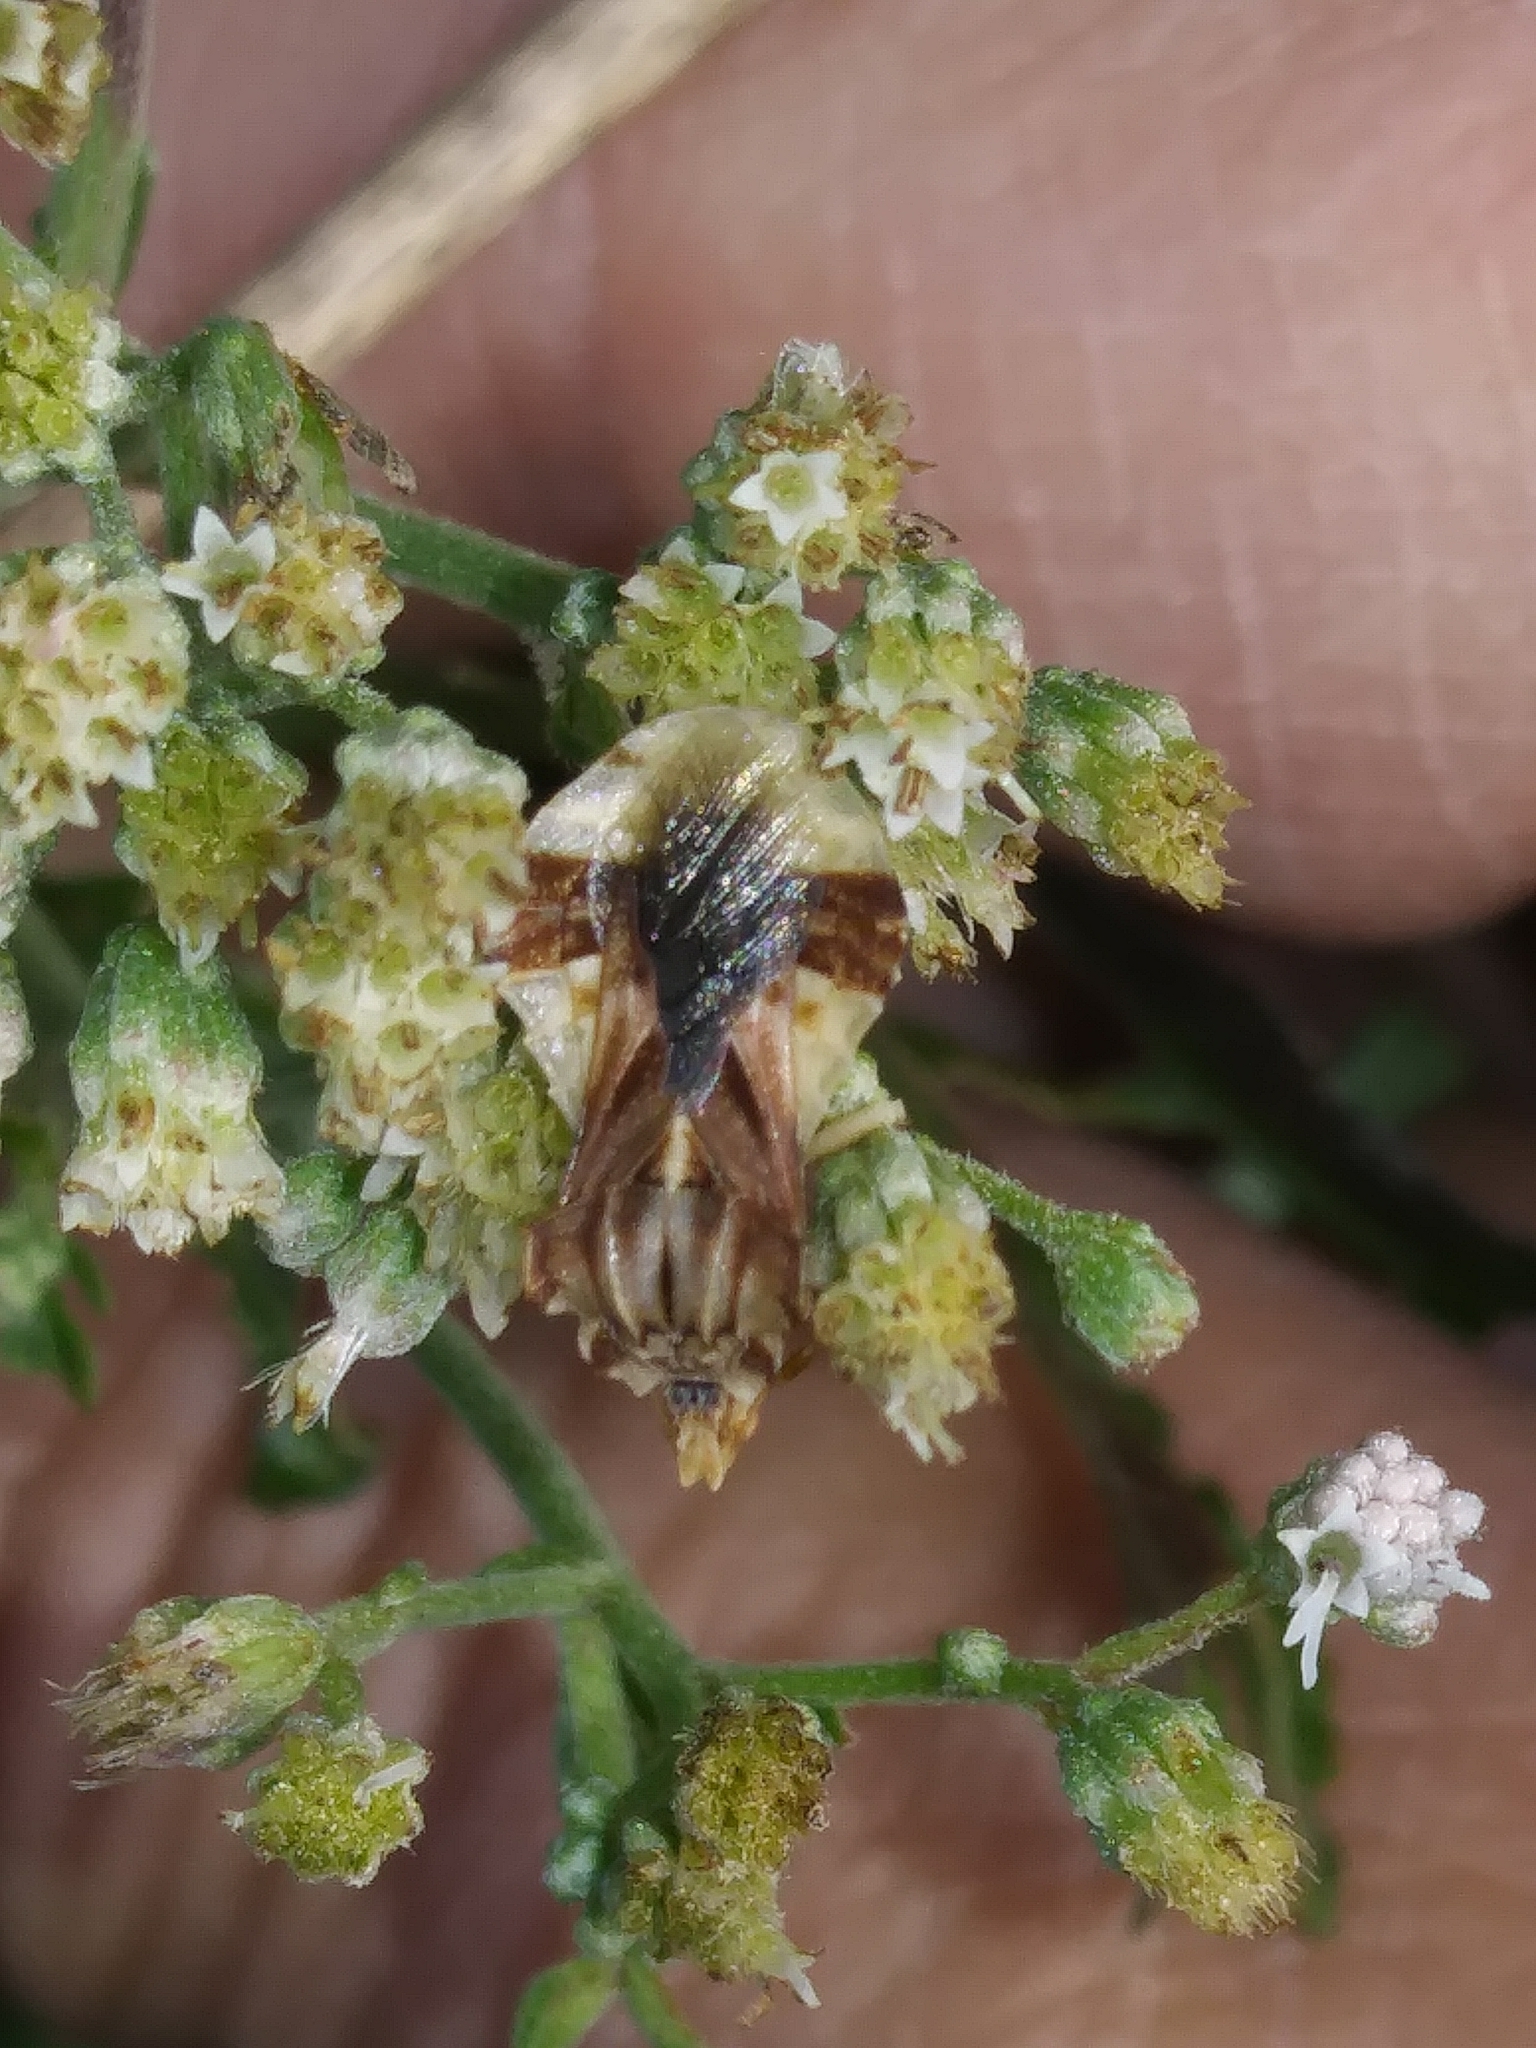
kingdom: Animalia
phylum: Arthropoda
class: Insecta
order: Hemiptera
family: Reduviidae
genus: Phymata
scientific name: Phymata fasciata
